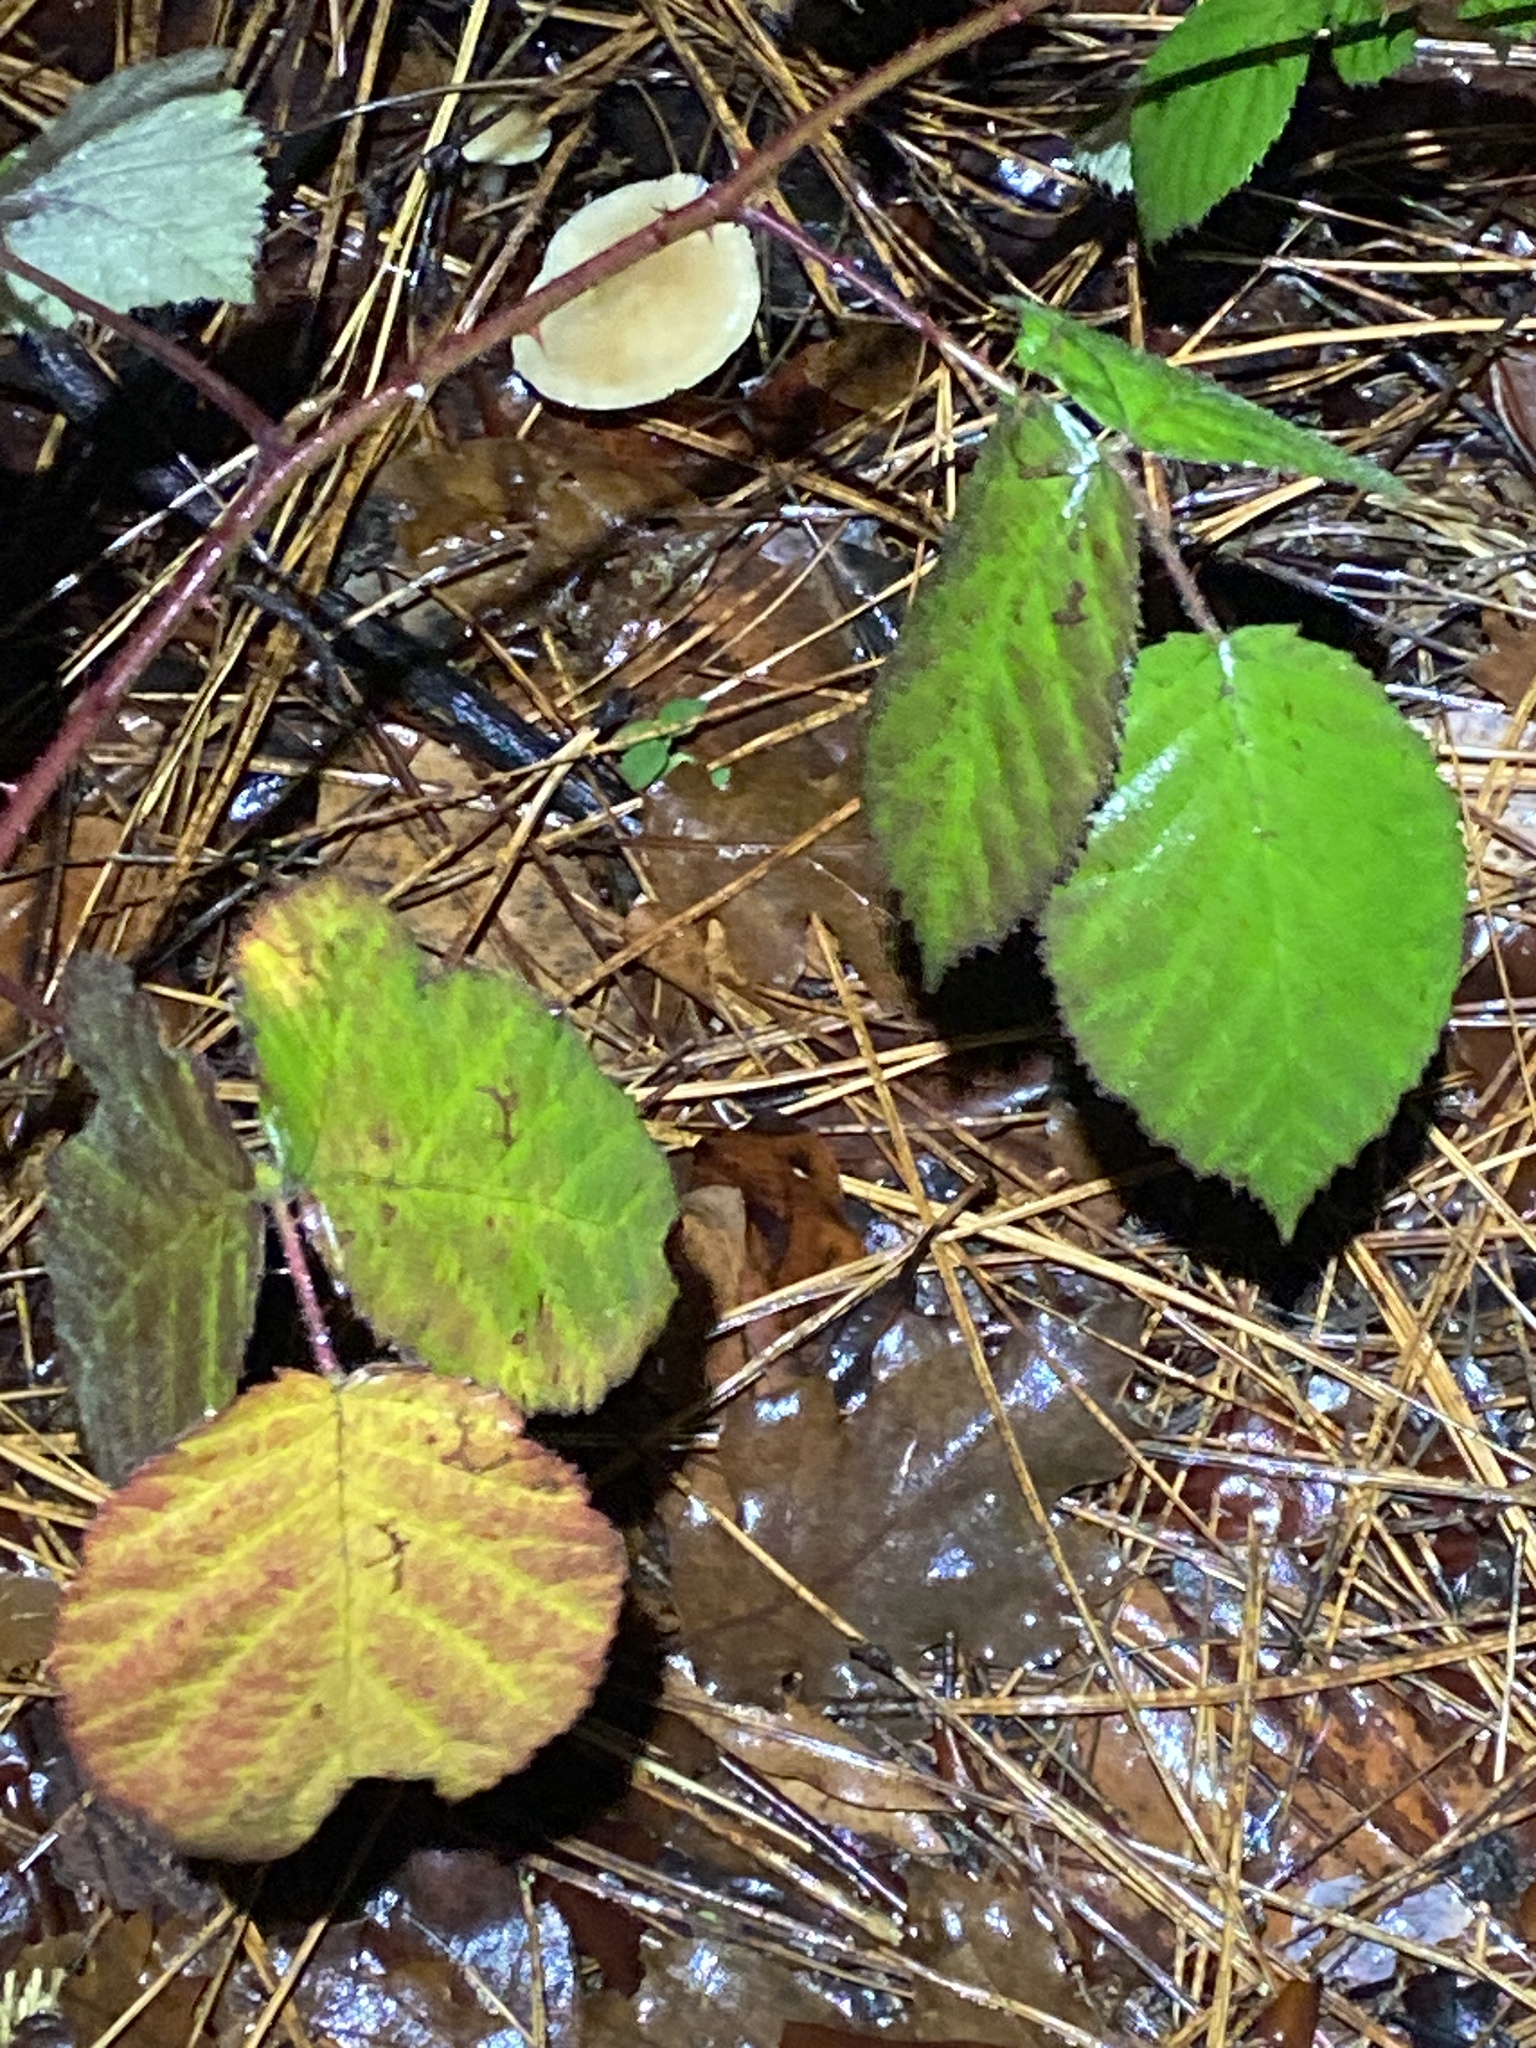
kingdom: Plantae
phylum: Tracheophyta
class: Magnoliopsida
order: Rosales
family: Rosaceae
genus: Rubus
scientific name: Rubus armeniacus
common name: Himalayan blackberry
